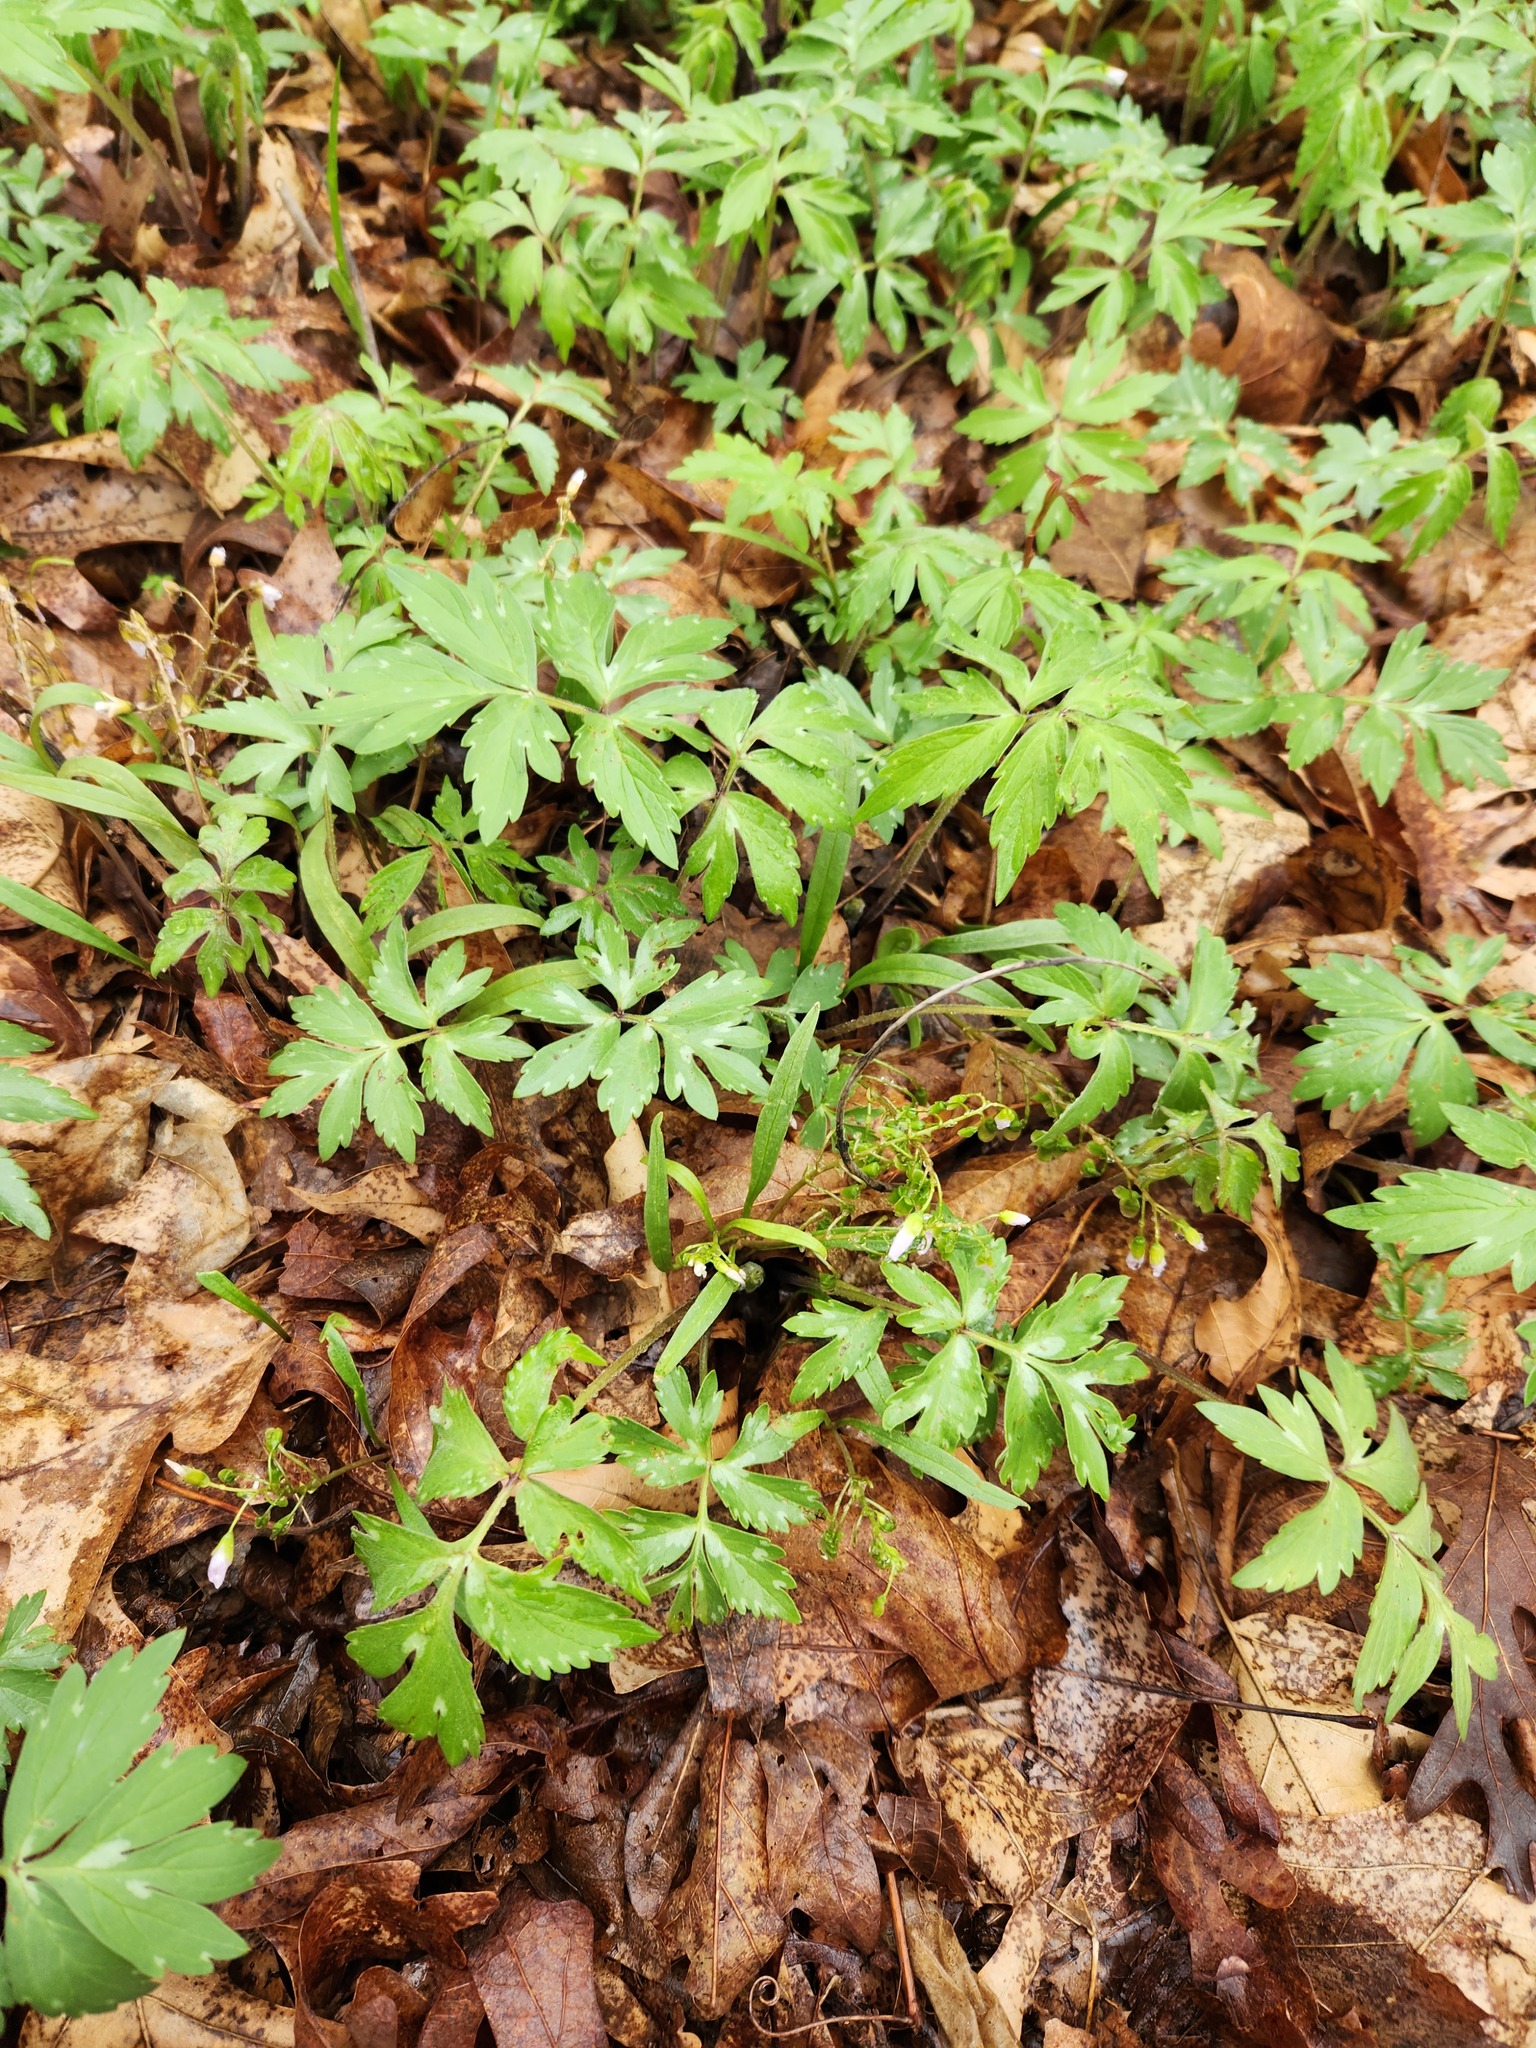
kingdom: Plantae
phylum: Tracheophyta
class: Magnoliopsida
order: Boraginales
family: Hydrophyllaceae
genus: Hydrophyllum
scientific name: Hydrophyllum virginianum
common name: Virginia waterleaf
